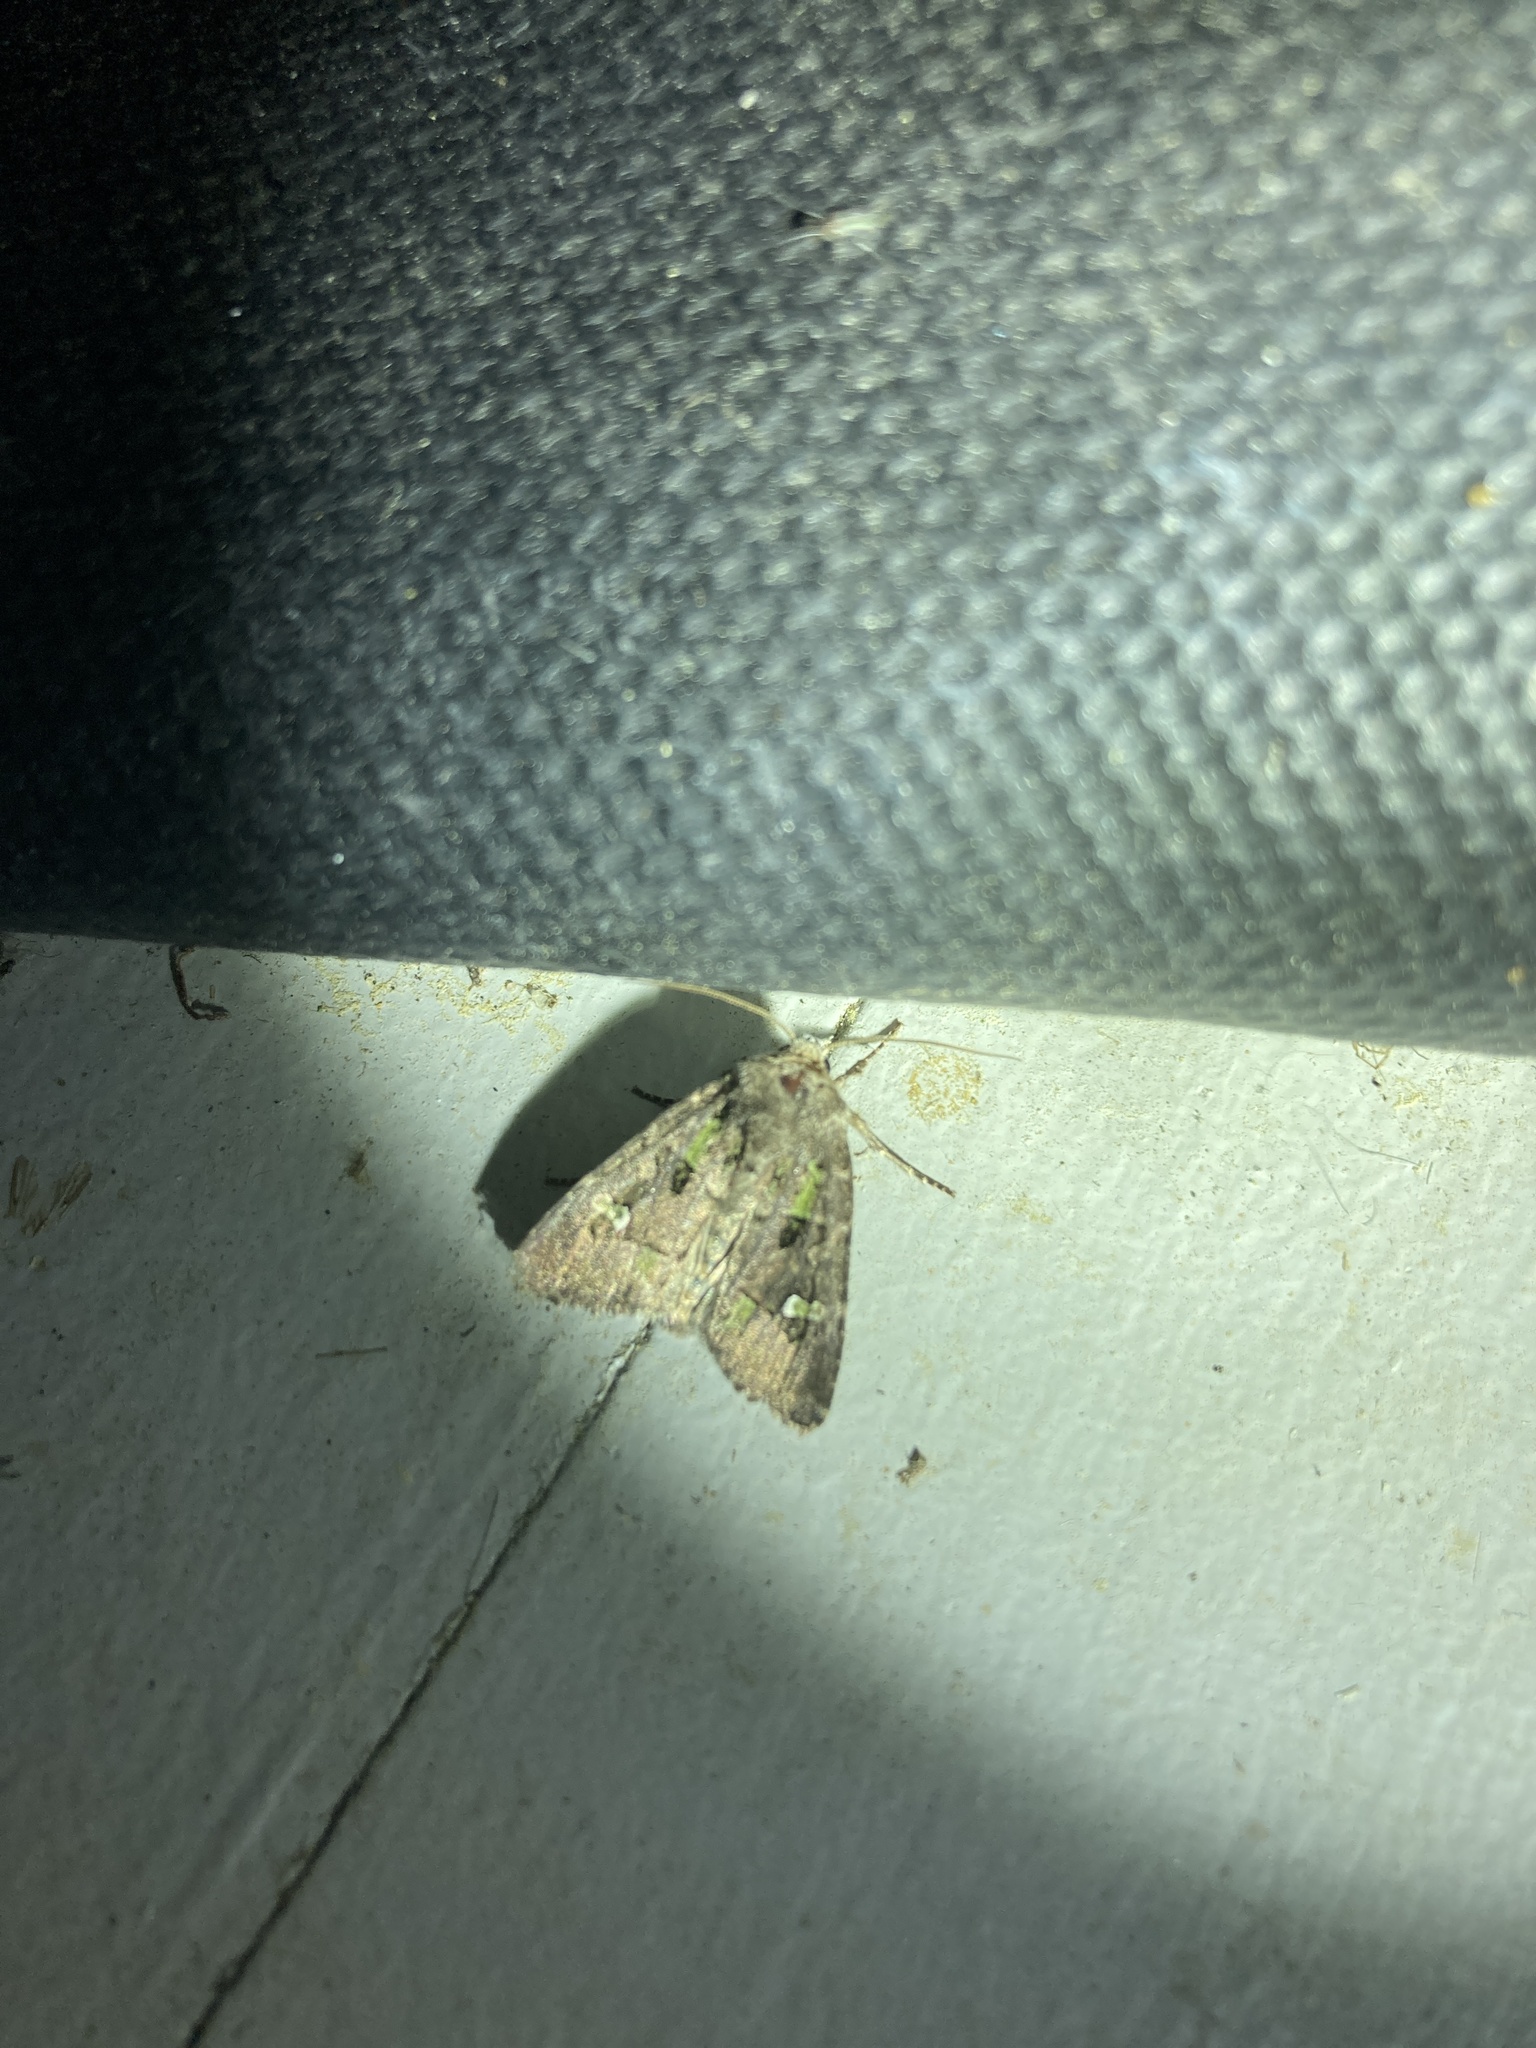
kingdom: Animalia
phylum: Arthropoda
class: Insecta
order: Lepidoptera
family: Noctuidae
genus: Lacinipolia
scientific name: Lacinipolia renigera
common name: Kidney-spotted minor
